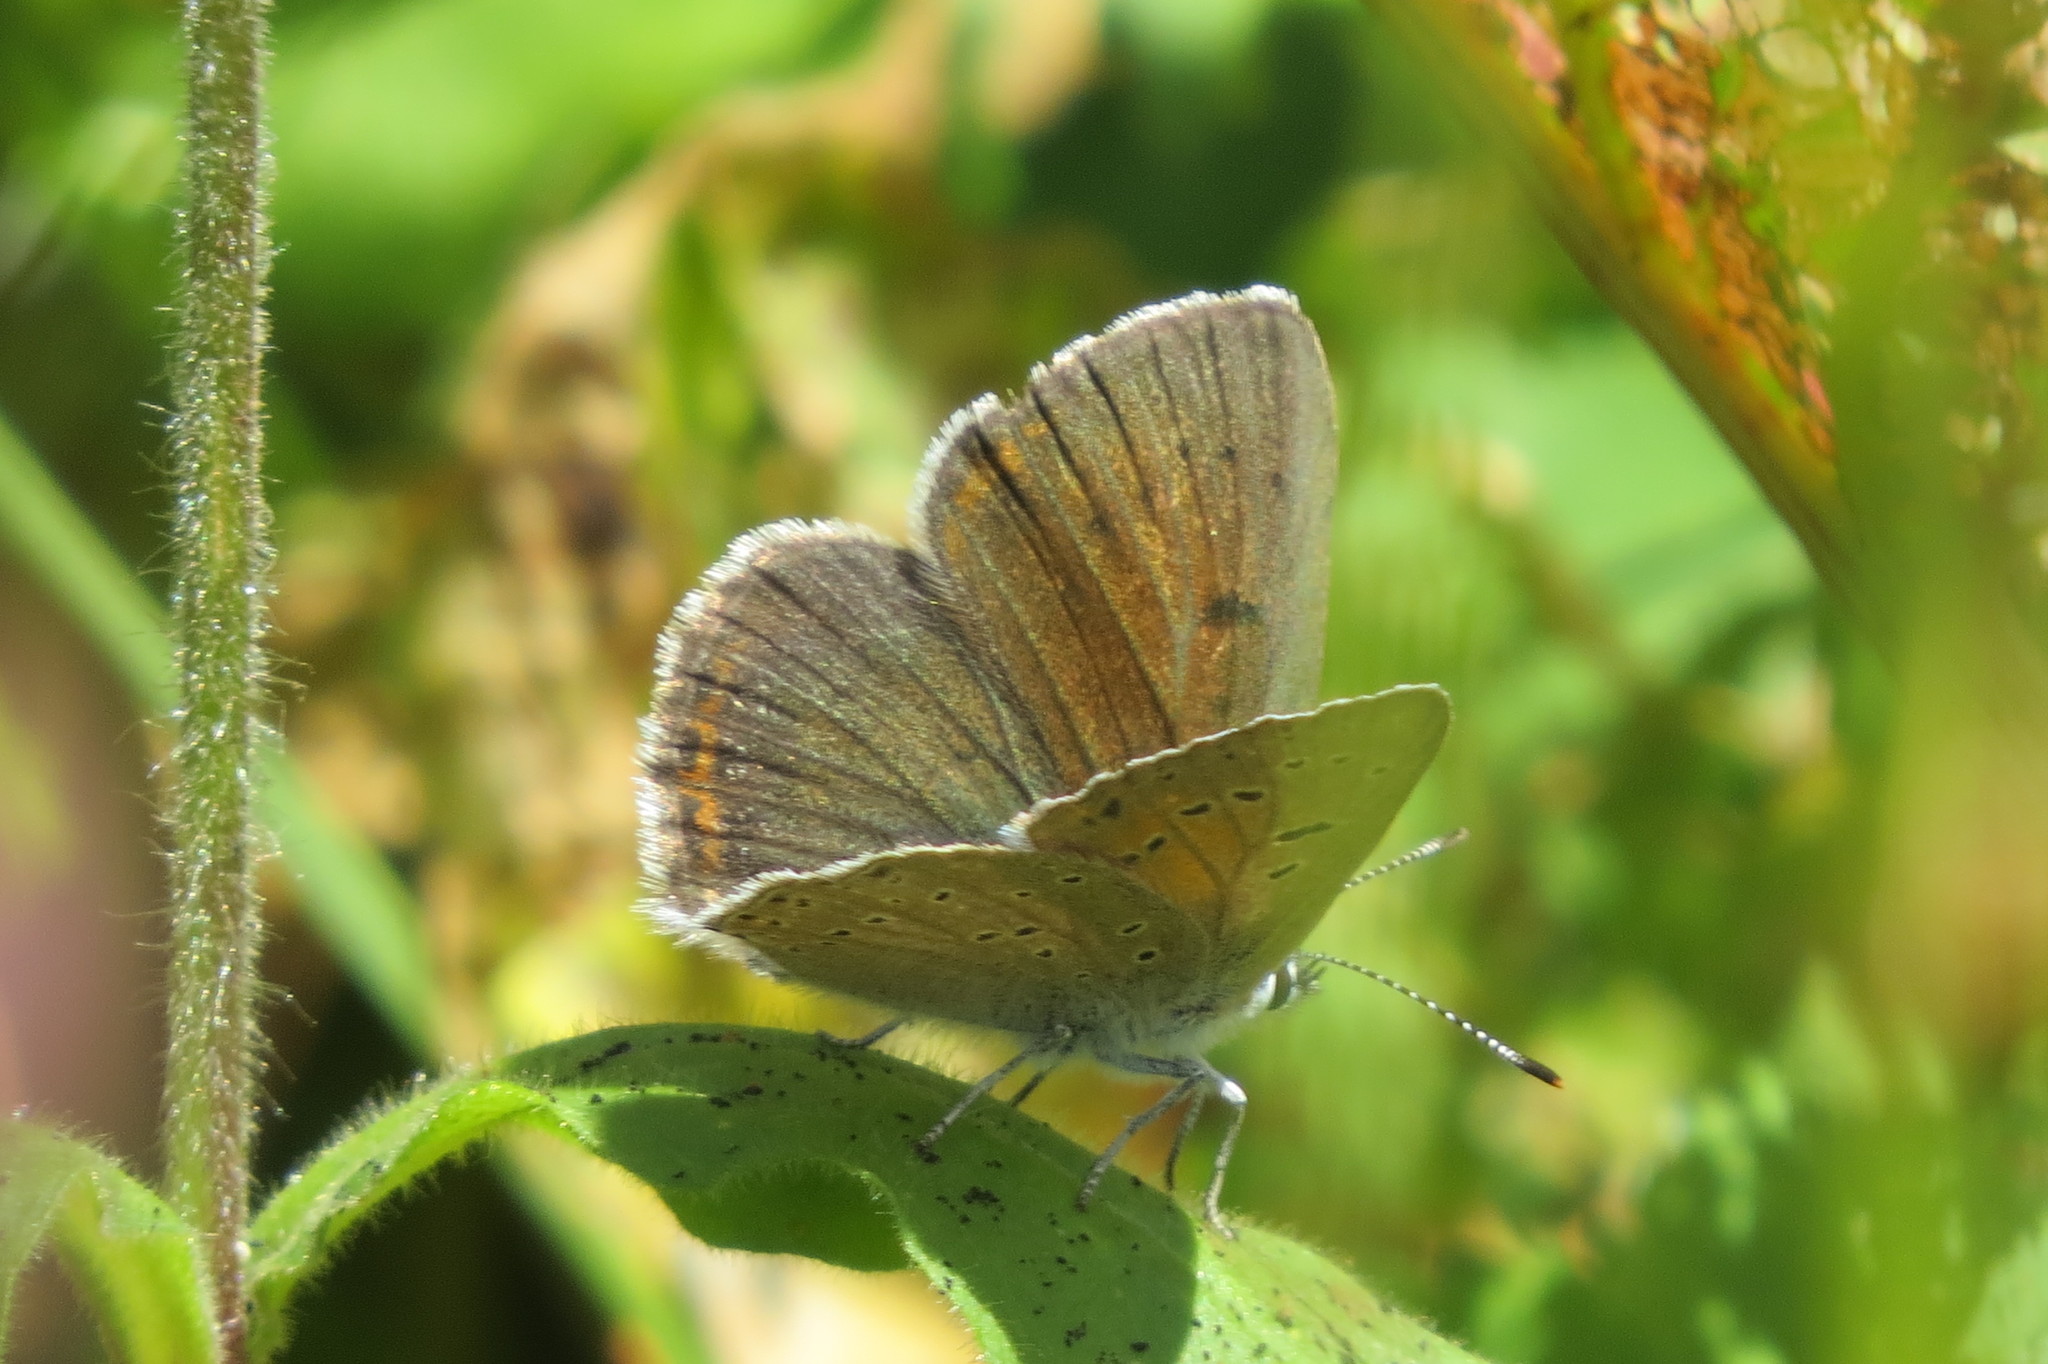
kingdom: Animalia
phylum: Arthropoda
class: Insecta
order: Lepidoptera
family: Lycaenidae
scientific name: Lycaenidae
